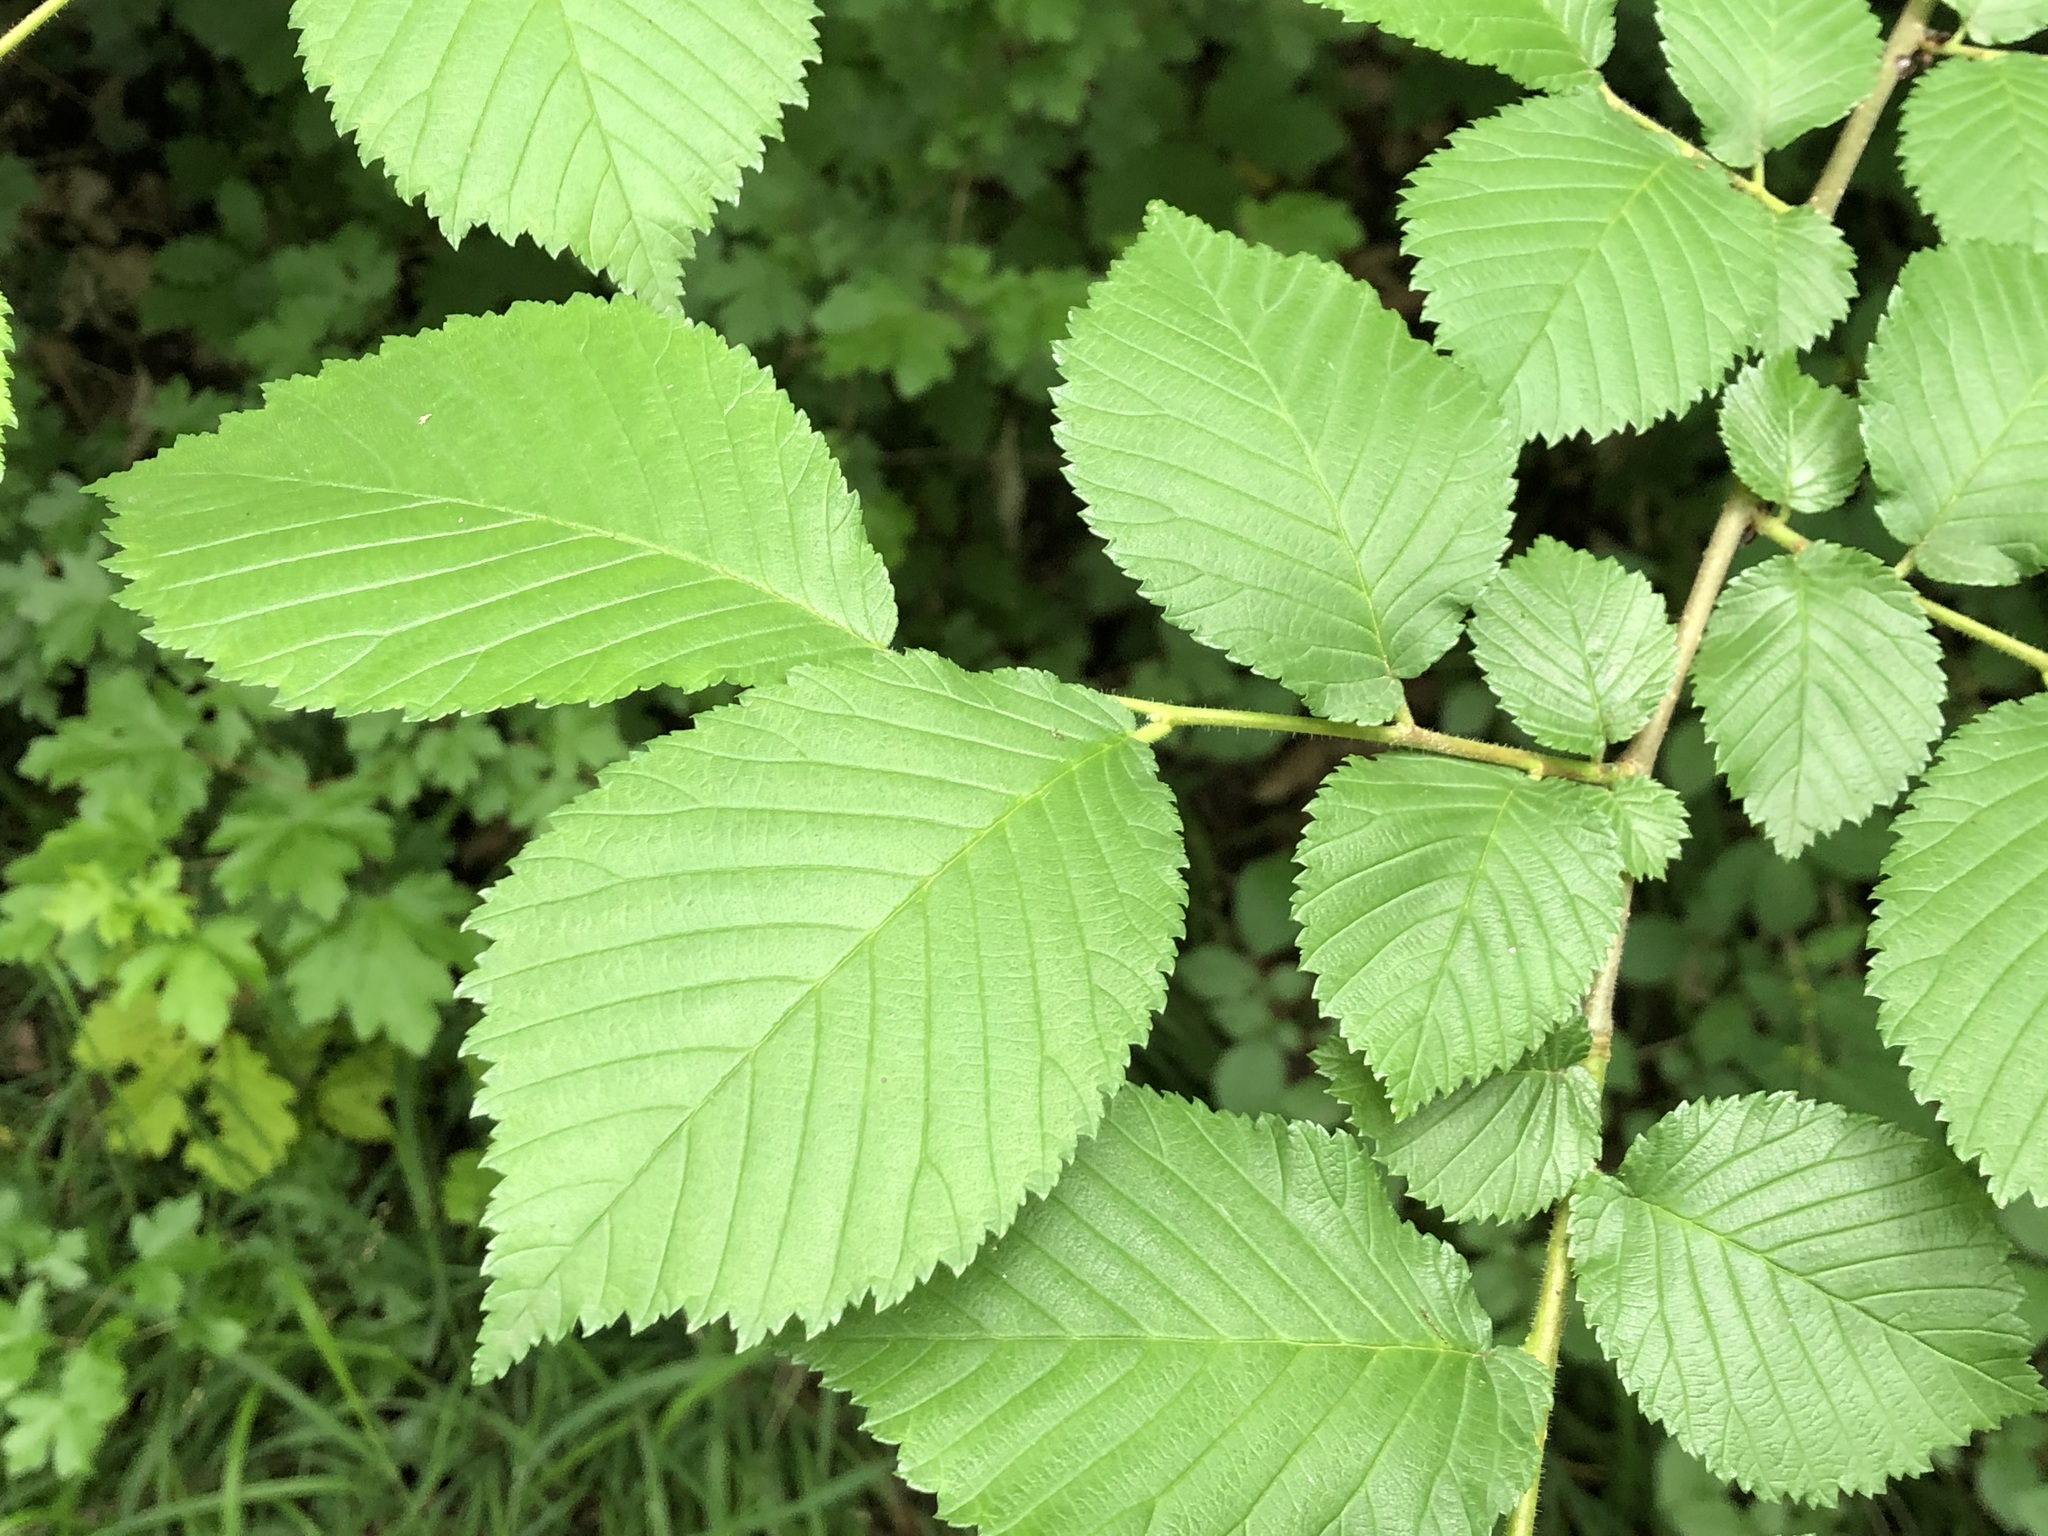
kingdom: Plantae
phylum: Tracheophyta
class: Magnoliopsida
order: Rosales
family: Ulmaceae
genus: Ulmus
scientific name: Ulmus glabra
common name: Wych elm
